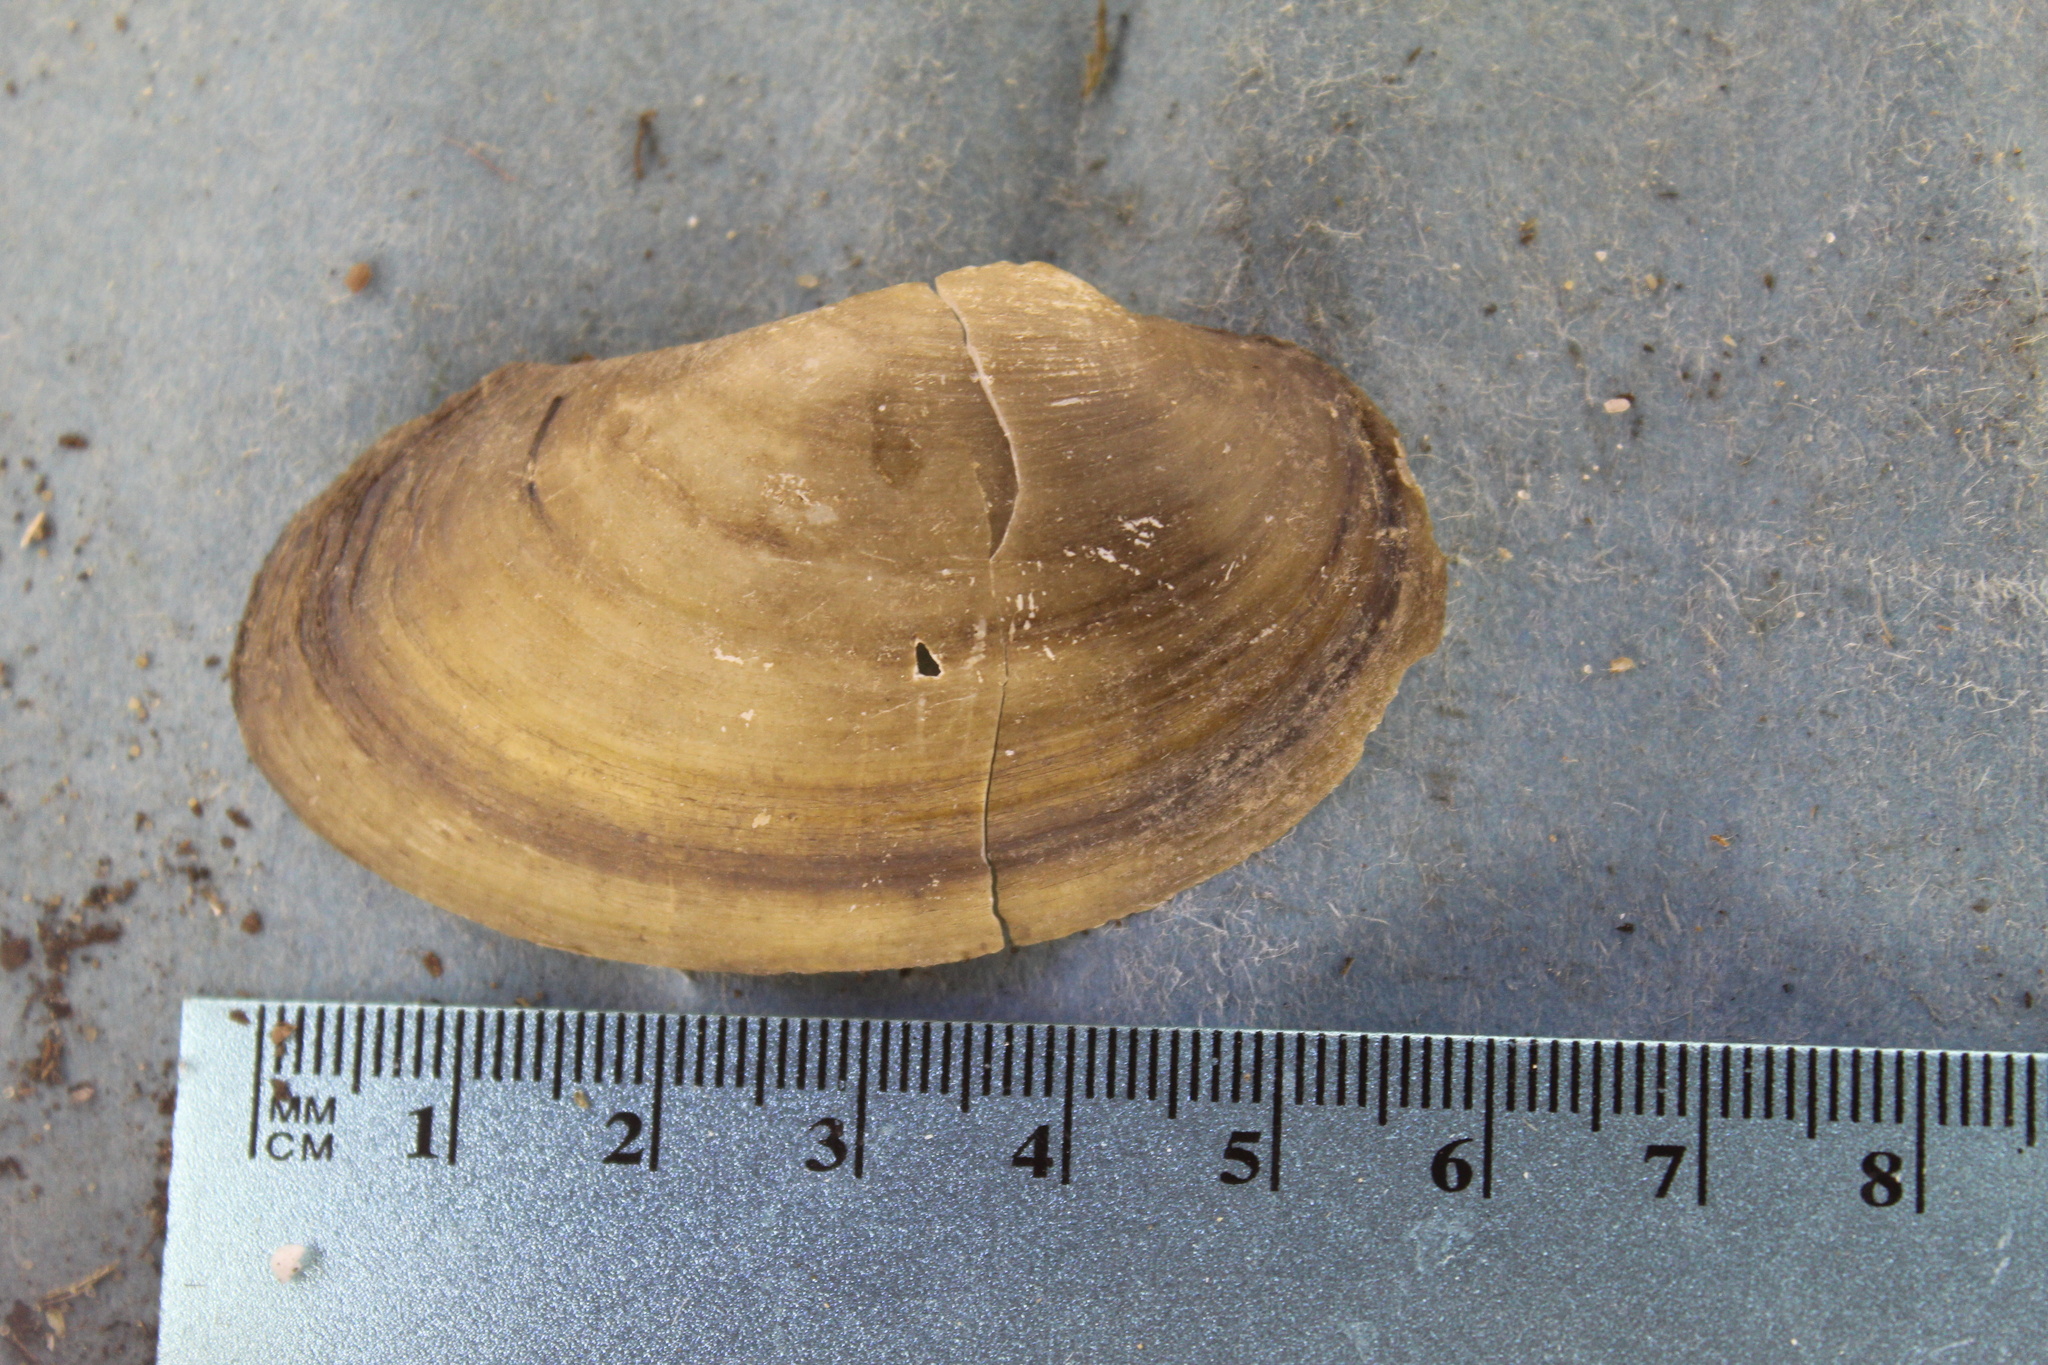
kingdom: Animalia
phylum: Mollusca
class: Bivalvia
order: Unionida
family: Unionidae
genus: Pyganodon
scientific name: Pyganodon grandis
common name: Giant floater
